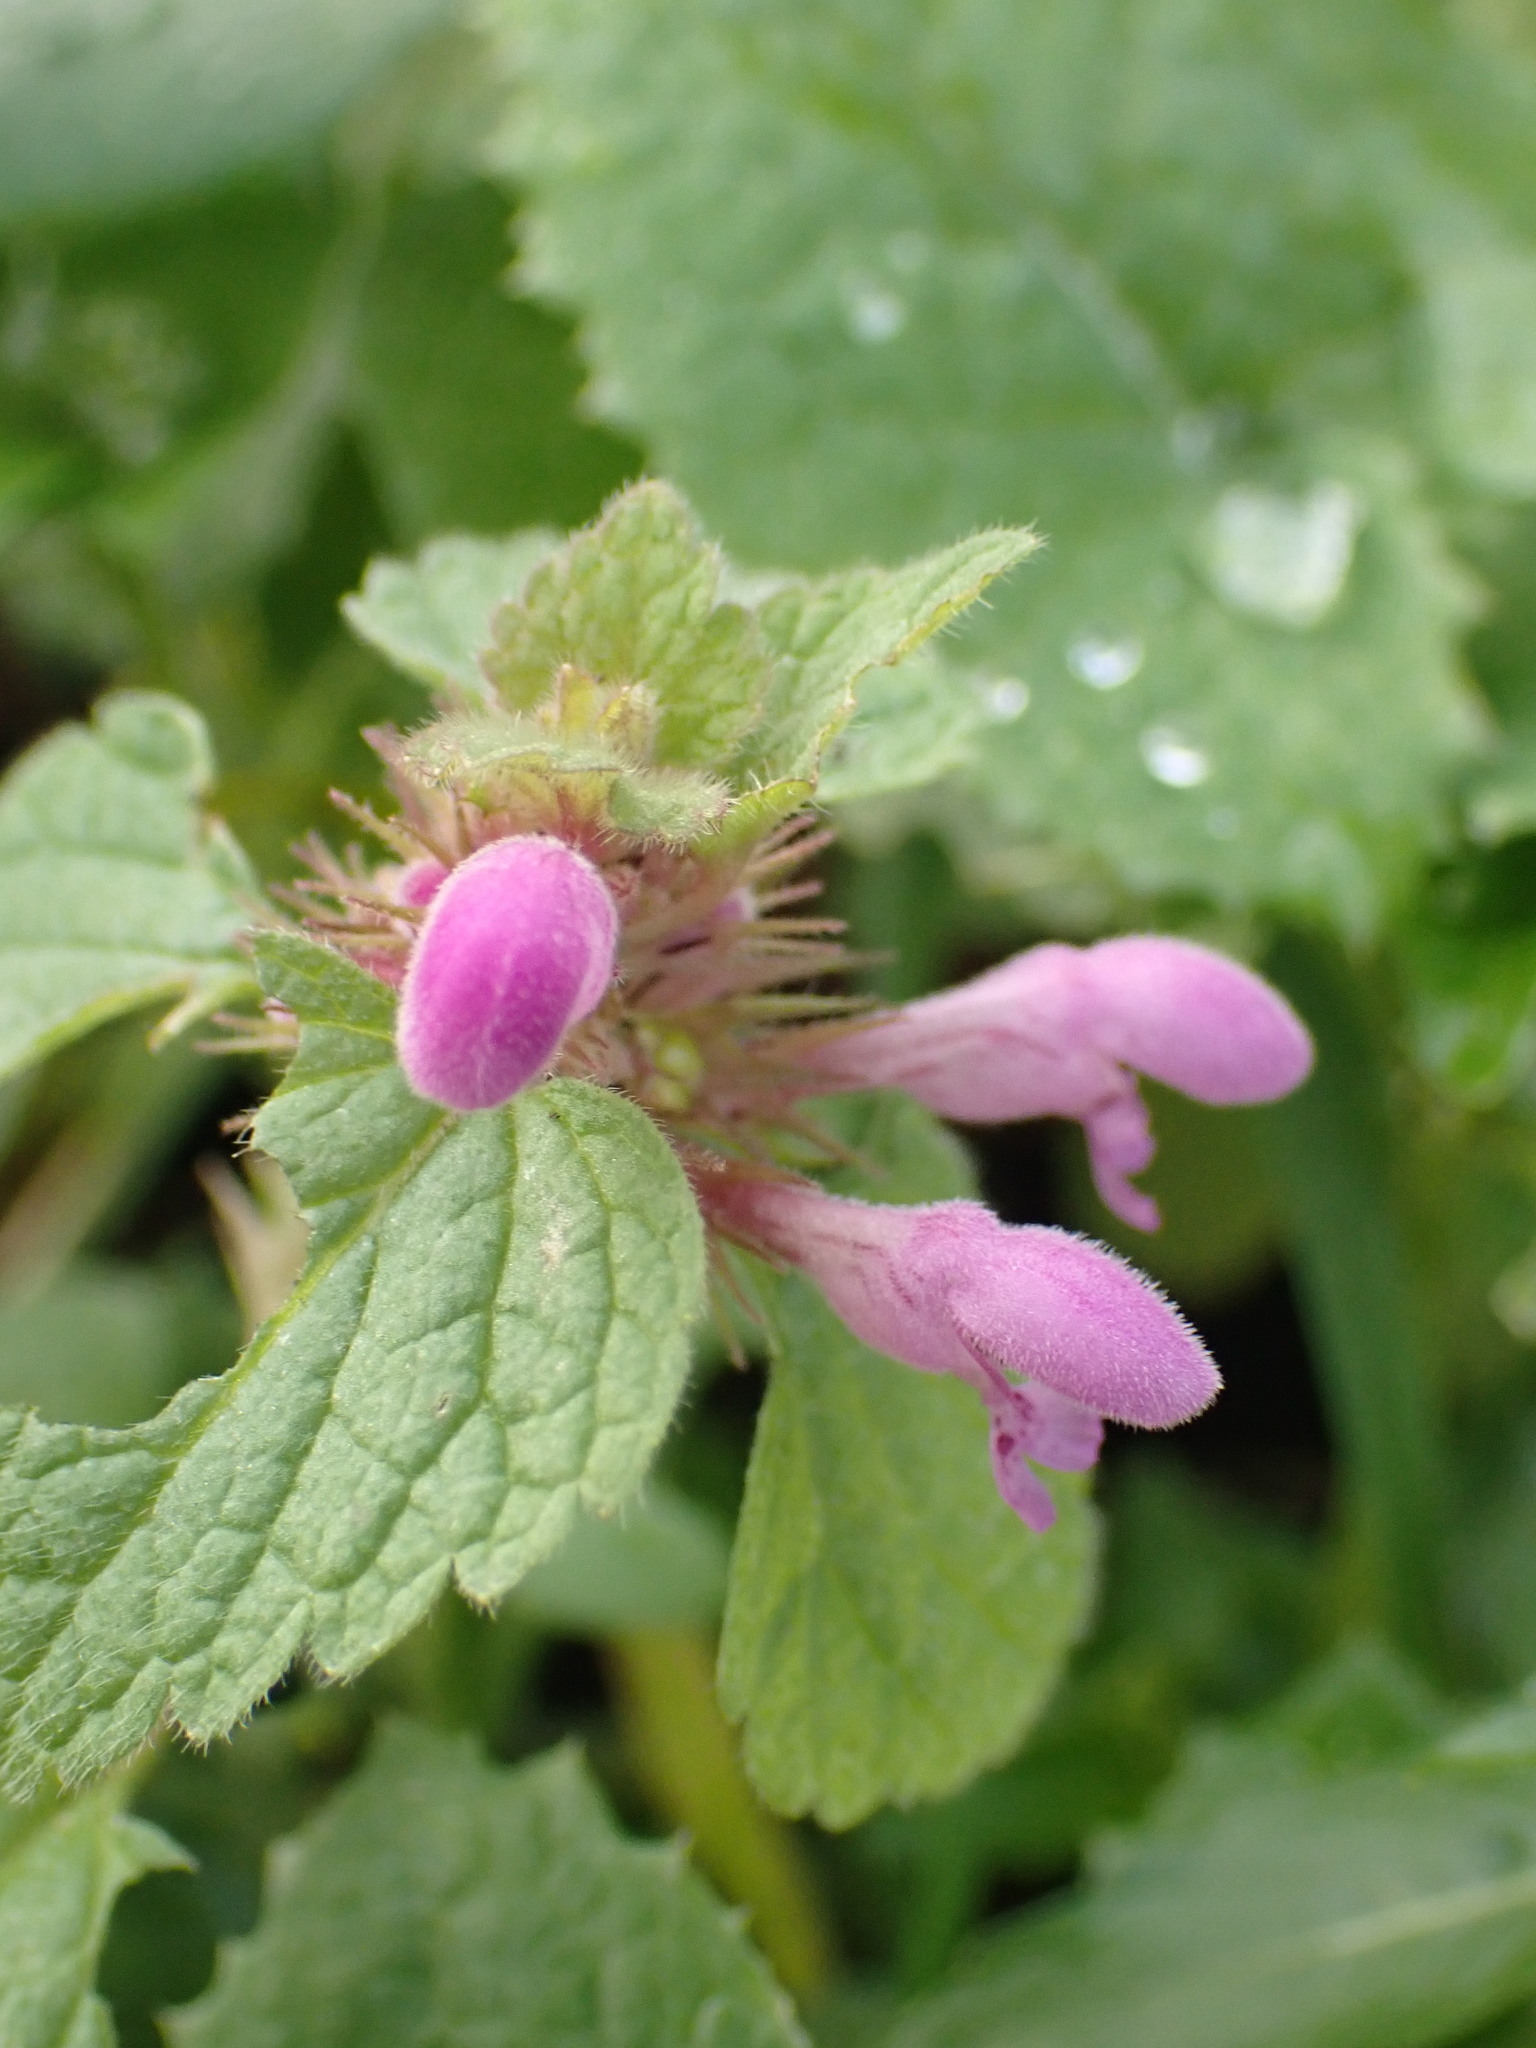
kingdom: Plantae
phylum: Tracheophyta
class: Magnoliopsida
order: Lamiales
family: Lamiaceae
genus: Lamium
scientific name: Lamium purpureum
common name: Red dead-nettle
